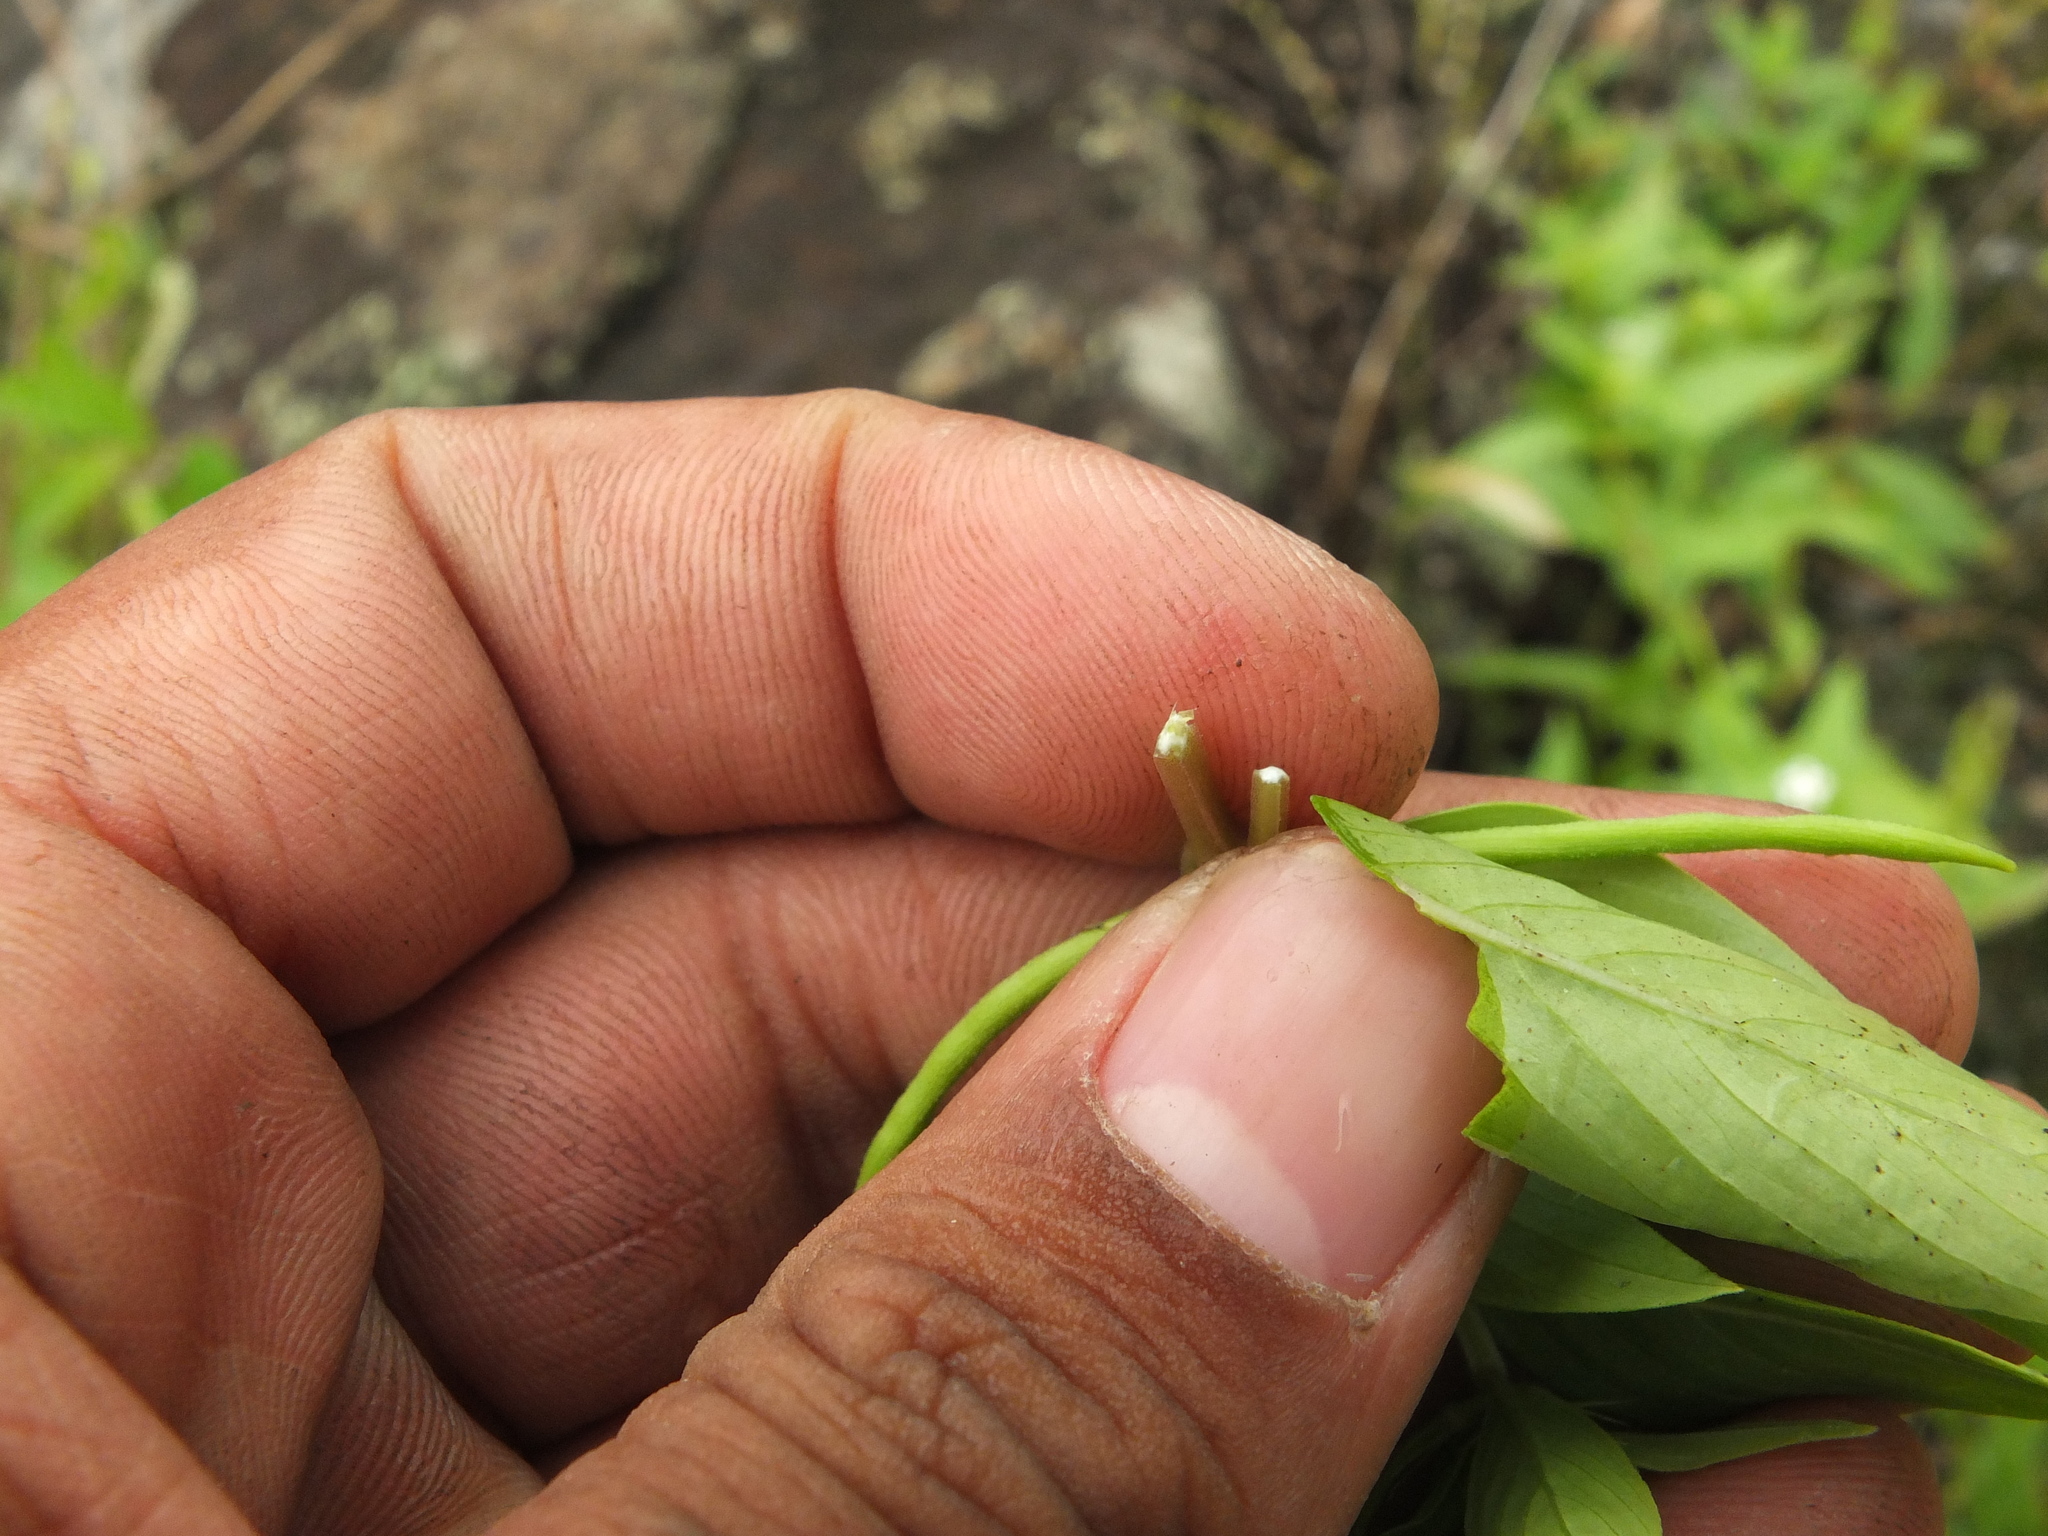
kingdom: Plantae
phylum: Tracheophyta
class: Magnoliopsida
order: Gentianales
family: Apocynaceae
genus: Catharanthus
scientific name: Catharanthus pusillus
